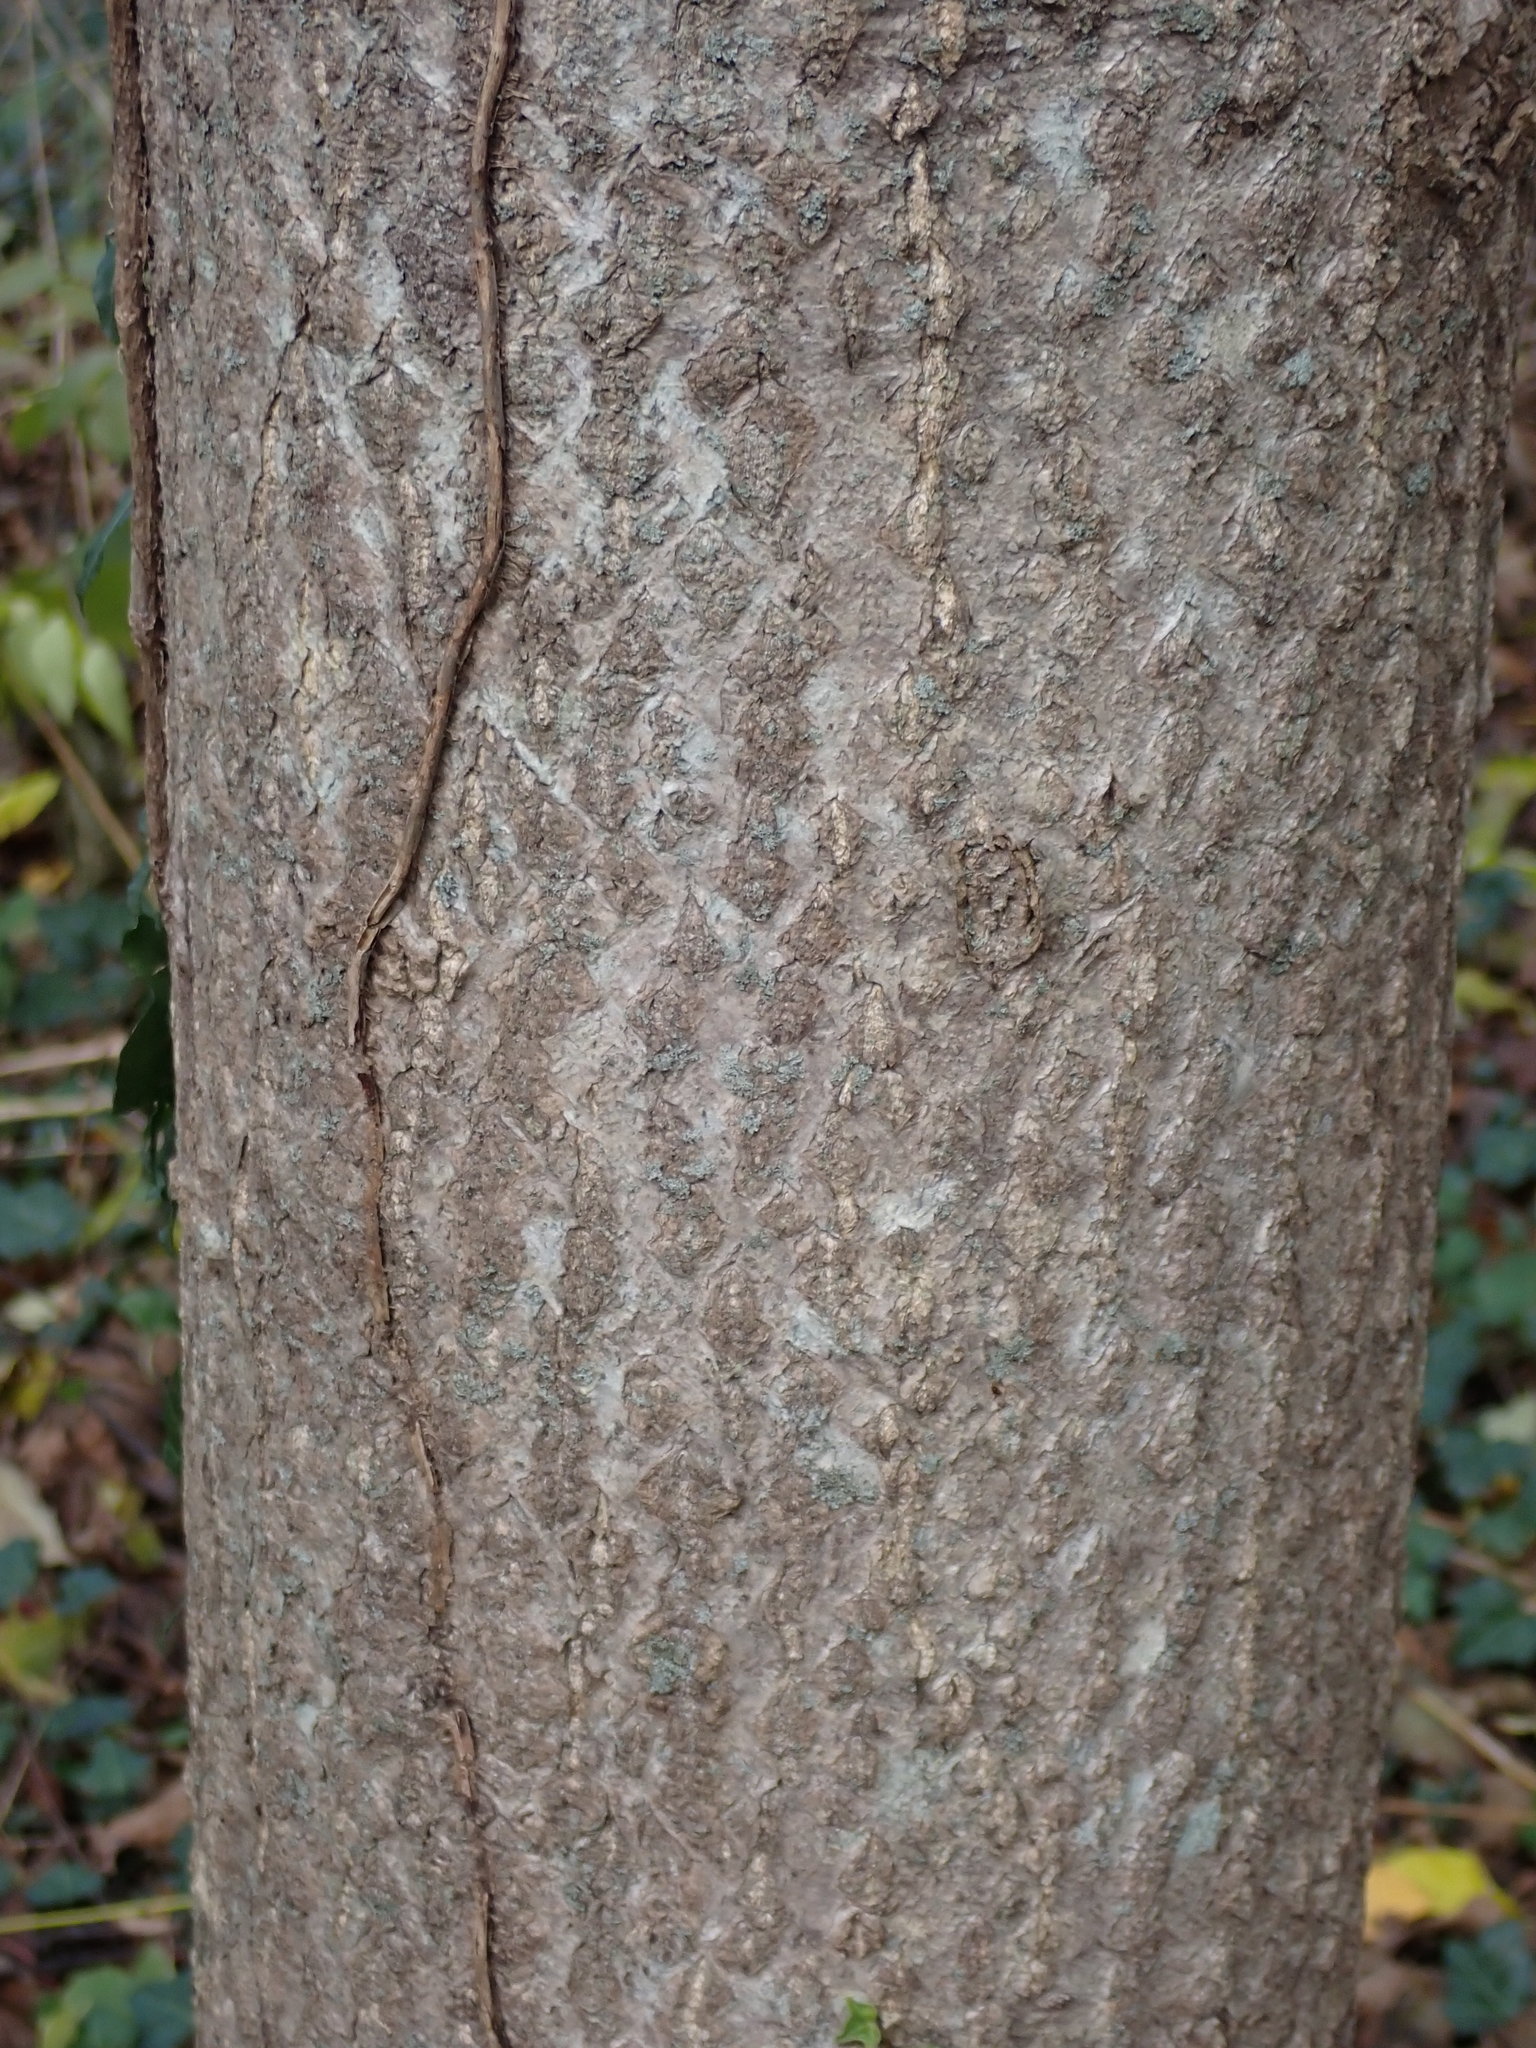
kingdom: Plantae
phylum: Tracheophyta
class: Magnoliopsida
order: Sapindales
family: Simaroubaceae
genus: Ailanthus
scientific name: Ailanthus altissima
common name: Tree-of-heaven
